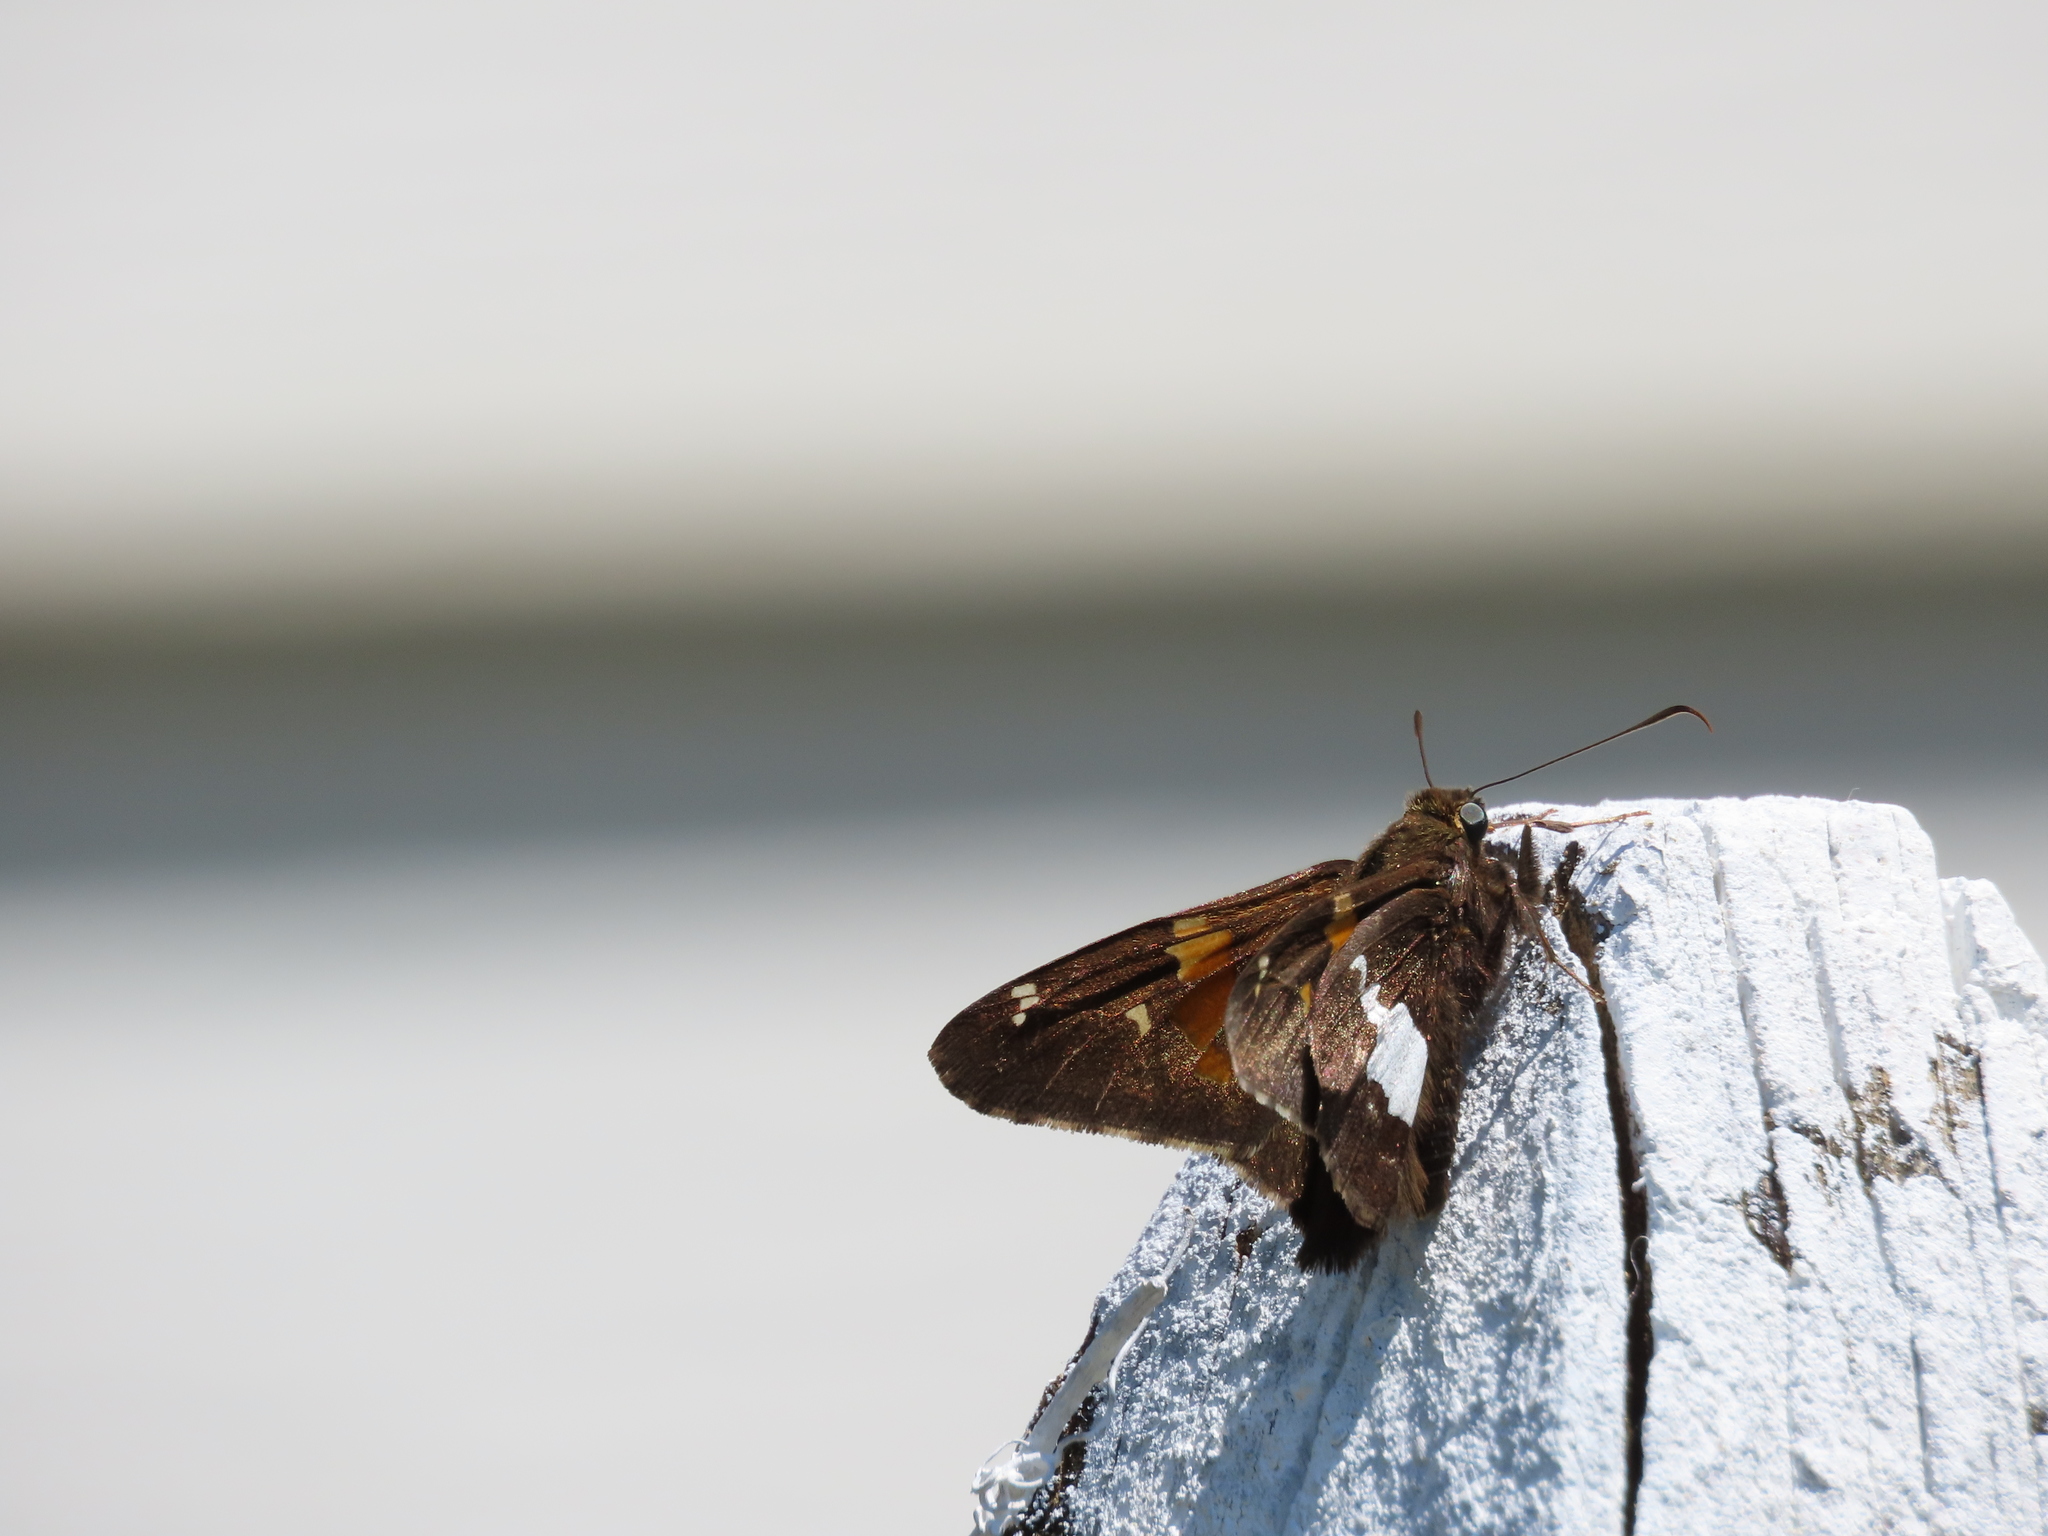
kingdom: Animalia
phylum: Arthropoda
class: Insecta
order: Lepidoptera
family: Hesperiidae
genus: Epargyreus
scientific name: Epargyreus clarus
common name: Silver-spotted skipper
